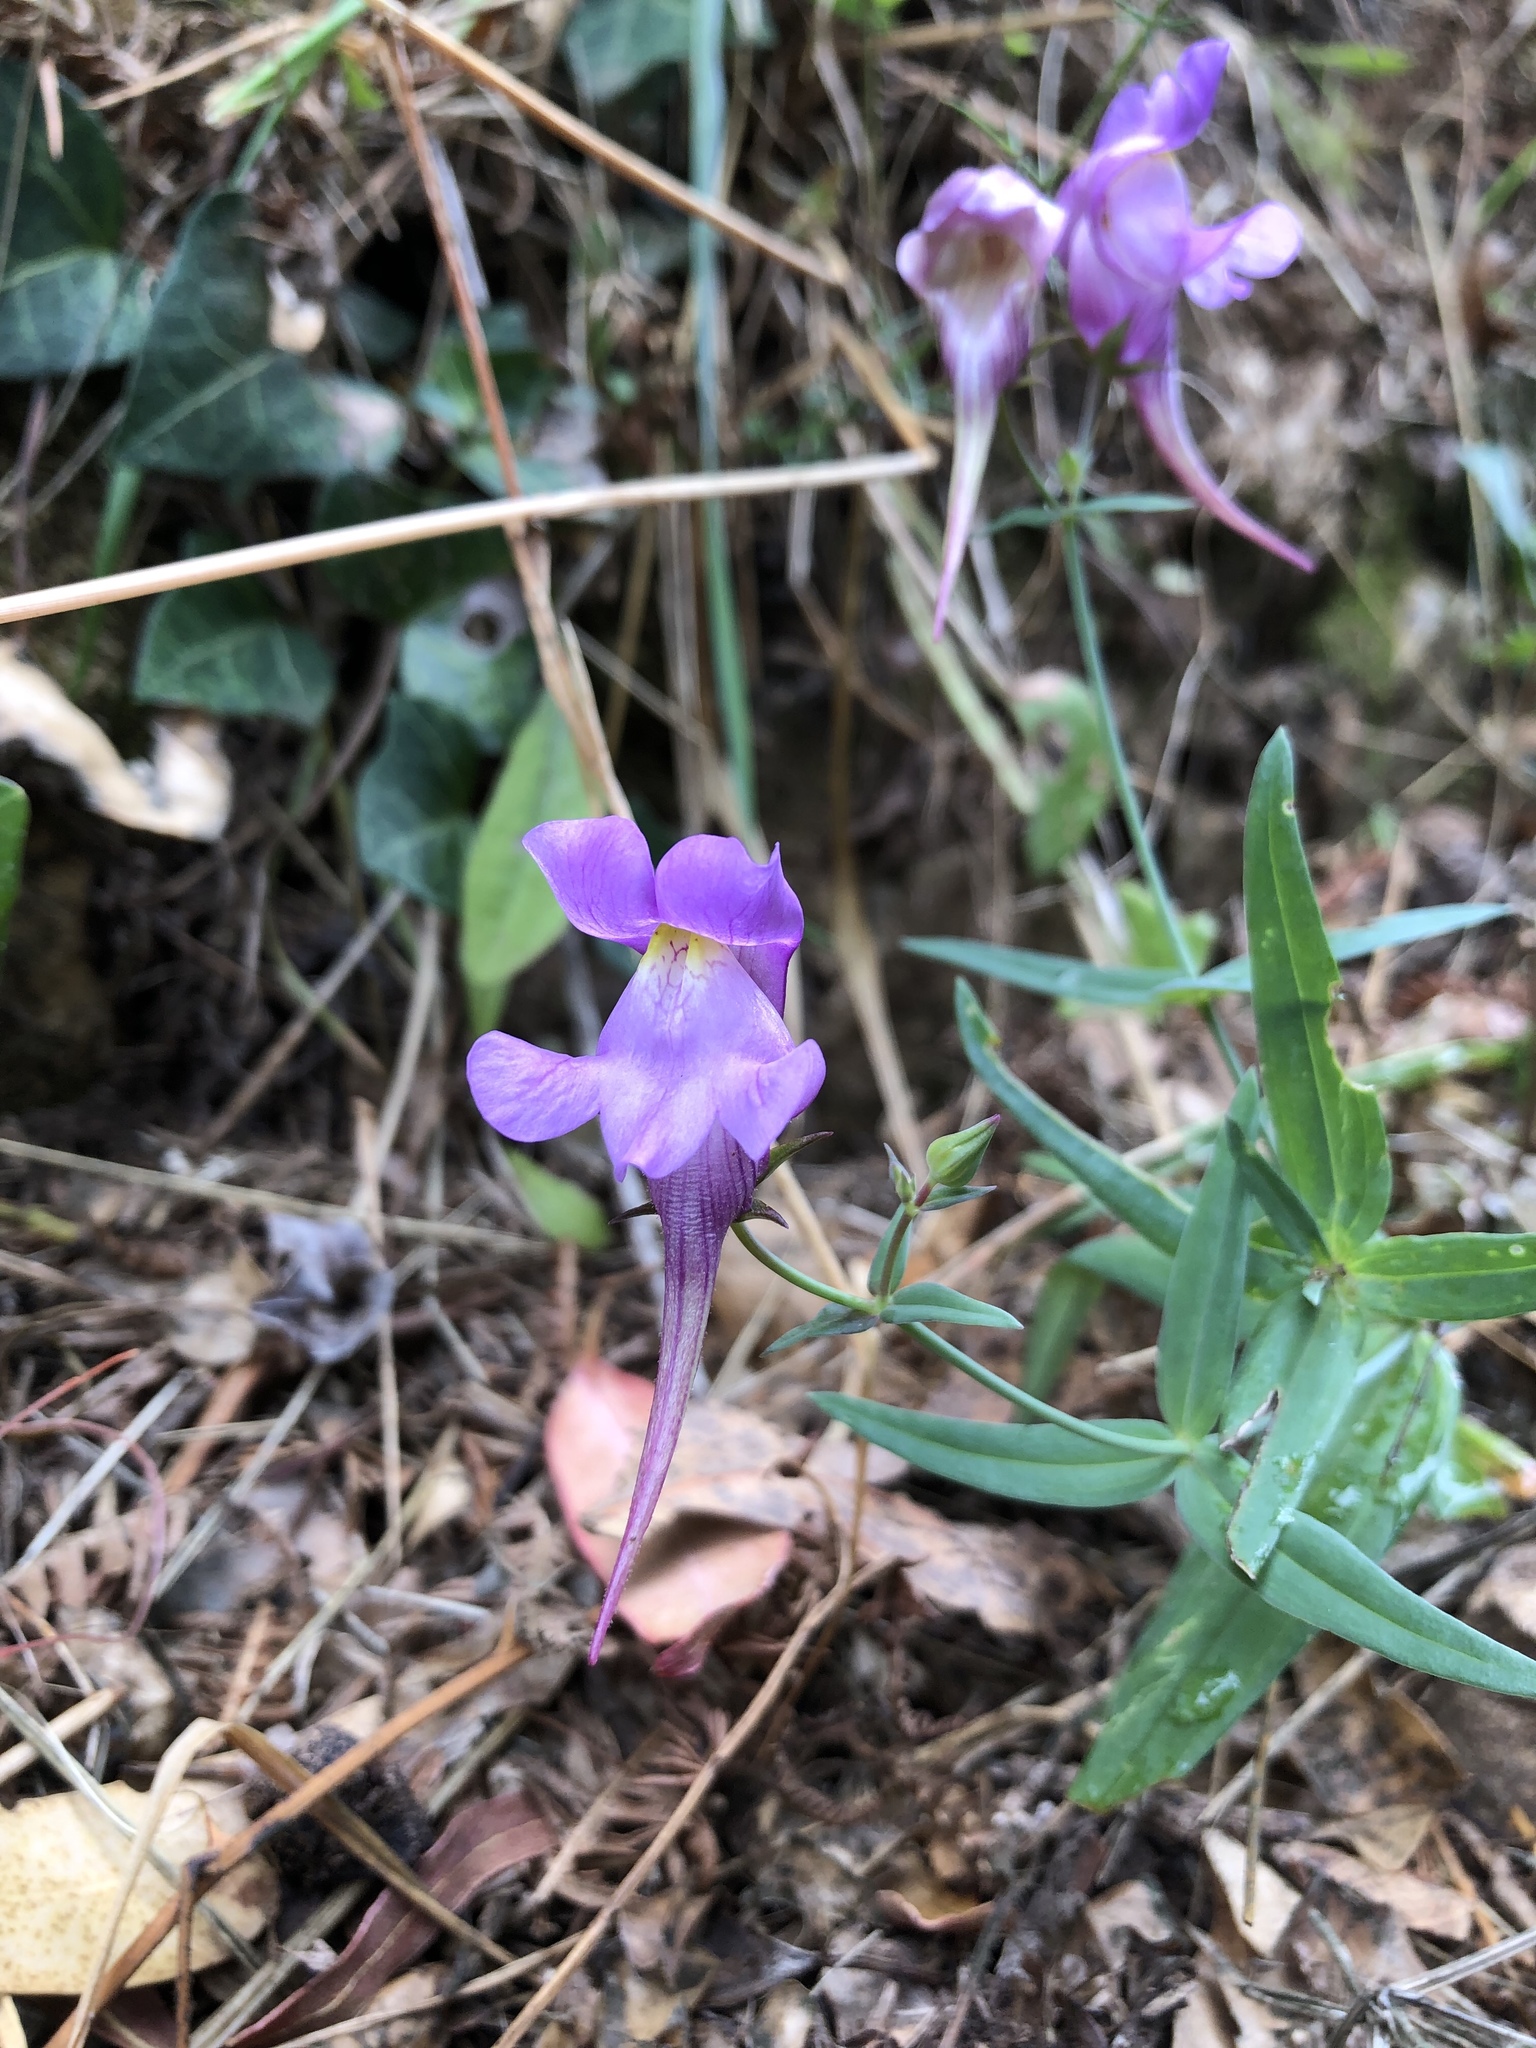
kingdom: Plantae
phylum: Tracheophyta
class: Magnoliopsida
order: Lamiales
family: Plantaginaceae
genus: Linaria
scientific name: Linaria triornithophora
